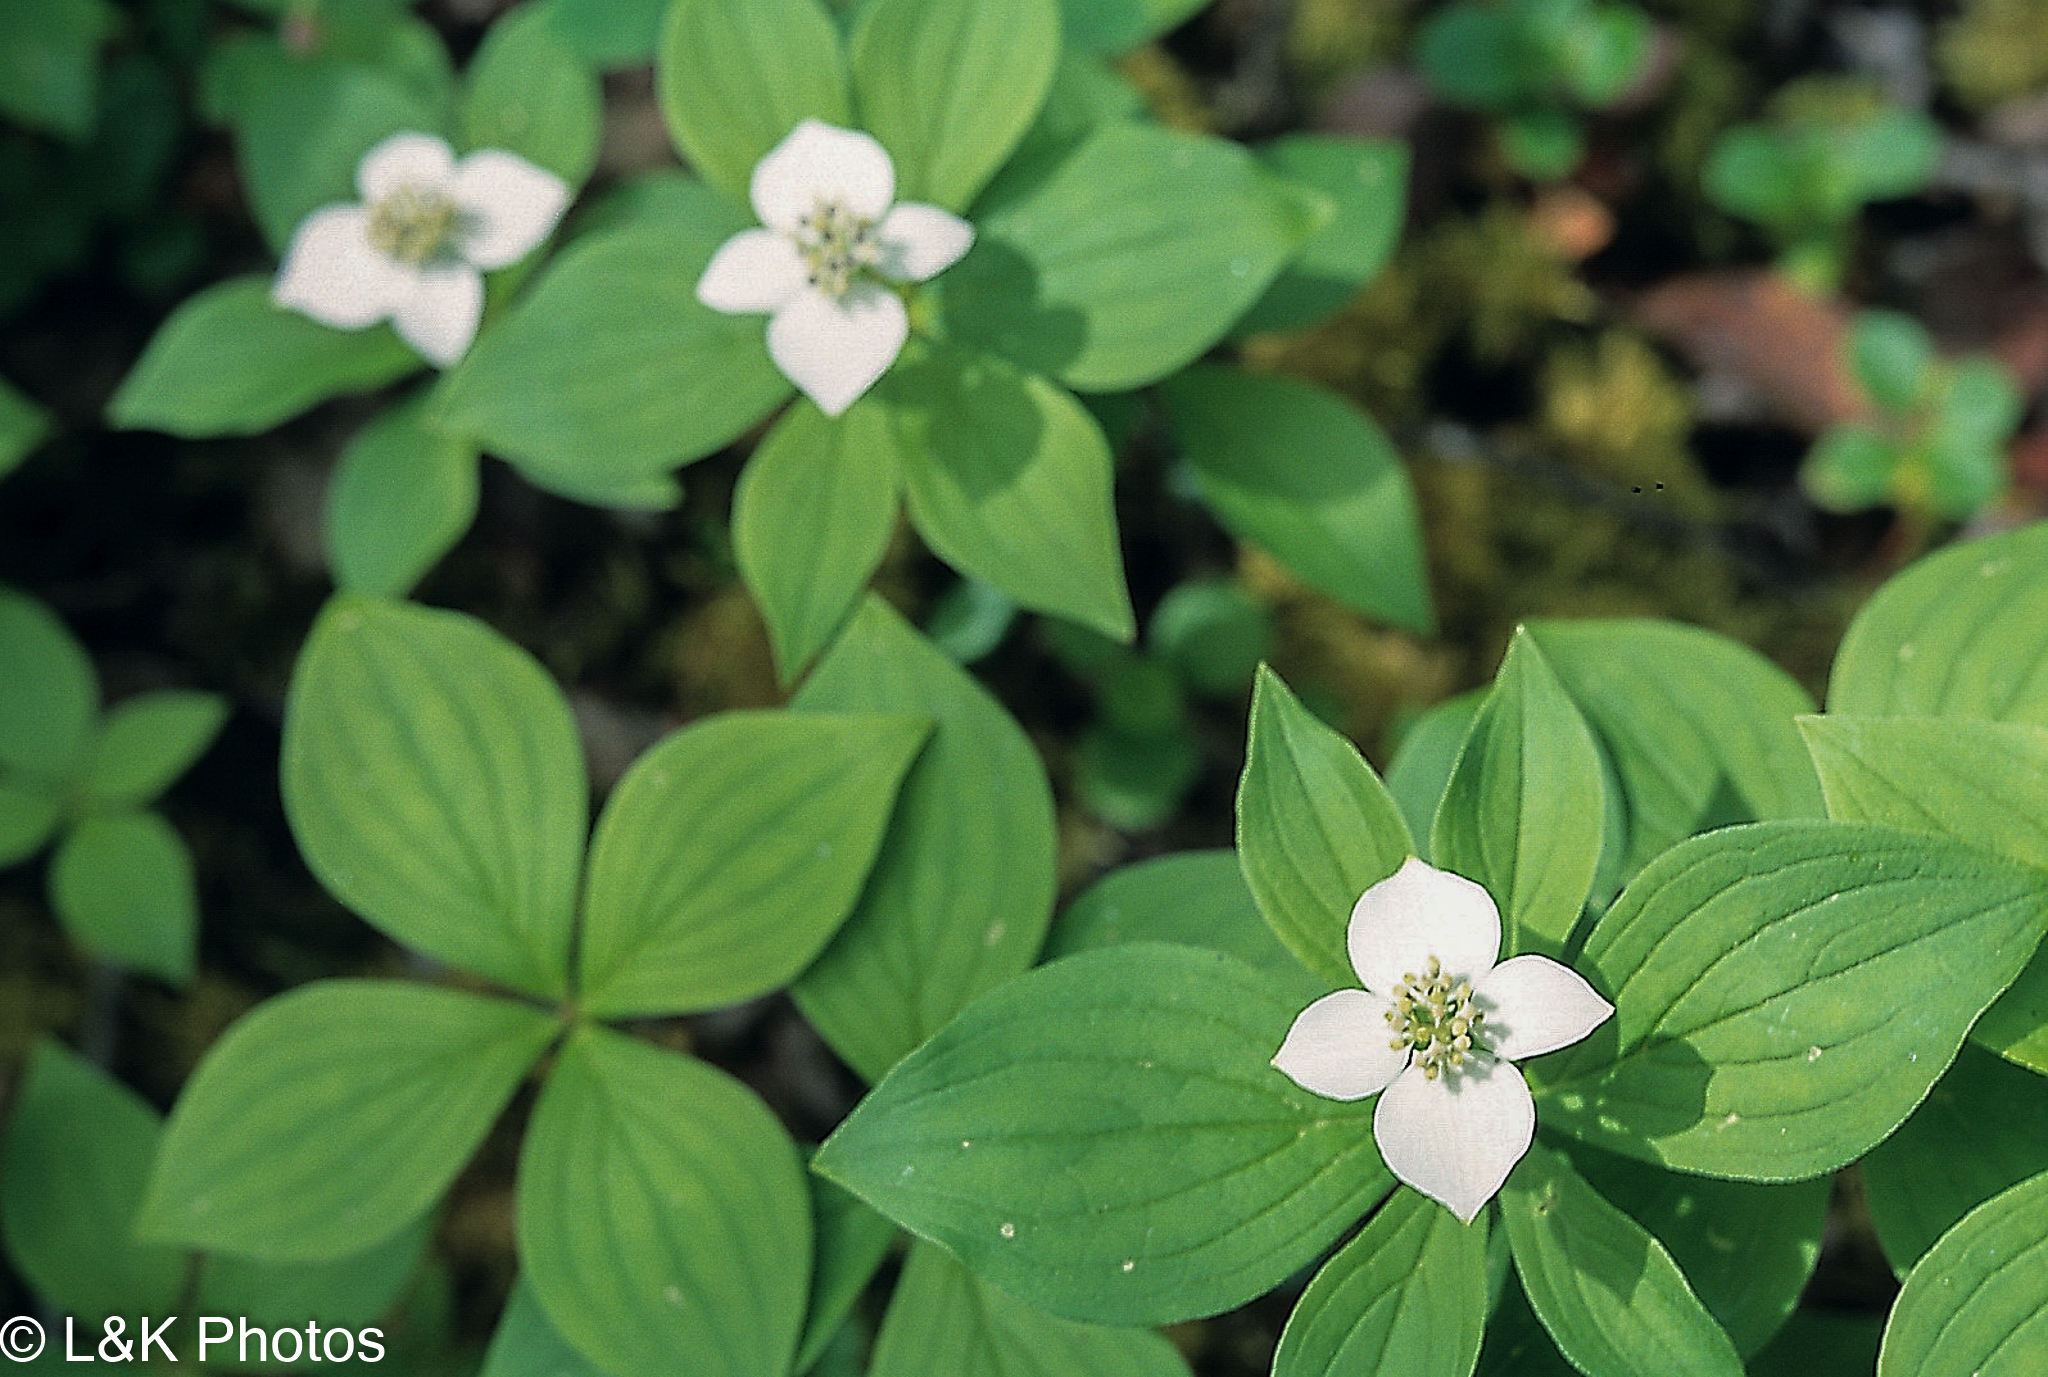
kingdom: Plantae
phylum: Tracheophyta
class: Magnoliopsida
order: Cornales
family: Cornaceae
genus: Cornus
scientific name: Cornus canadensis
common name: Creeping dogwood
